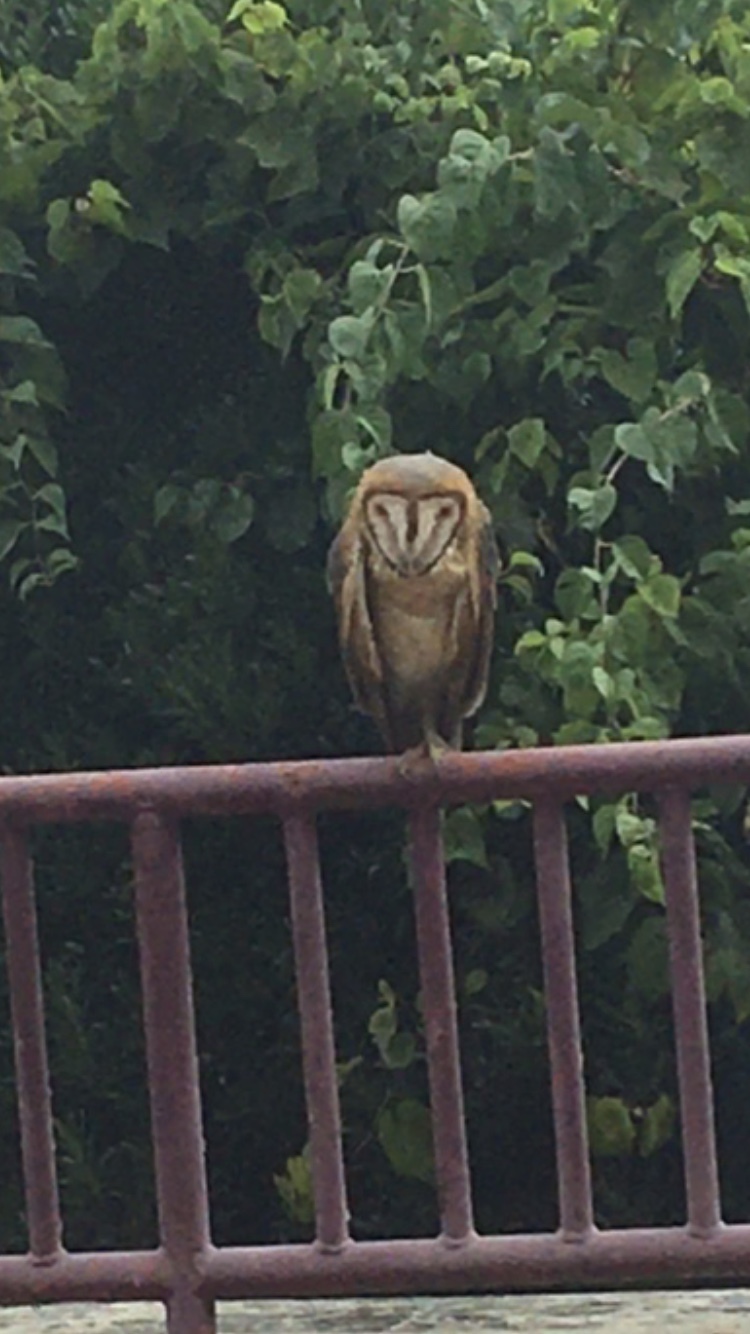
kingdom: Animalia
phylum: Chordata
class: Aves
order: Strigiformes
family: Tytonidae
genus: Tyto
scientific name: Tyto alba
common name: Barn owl
